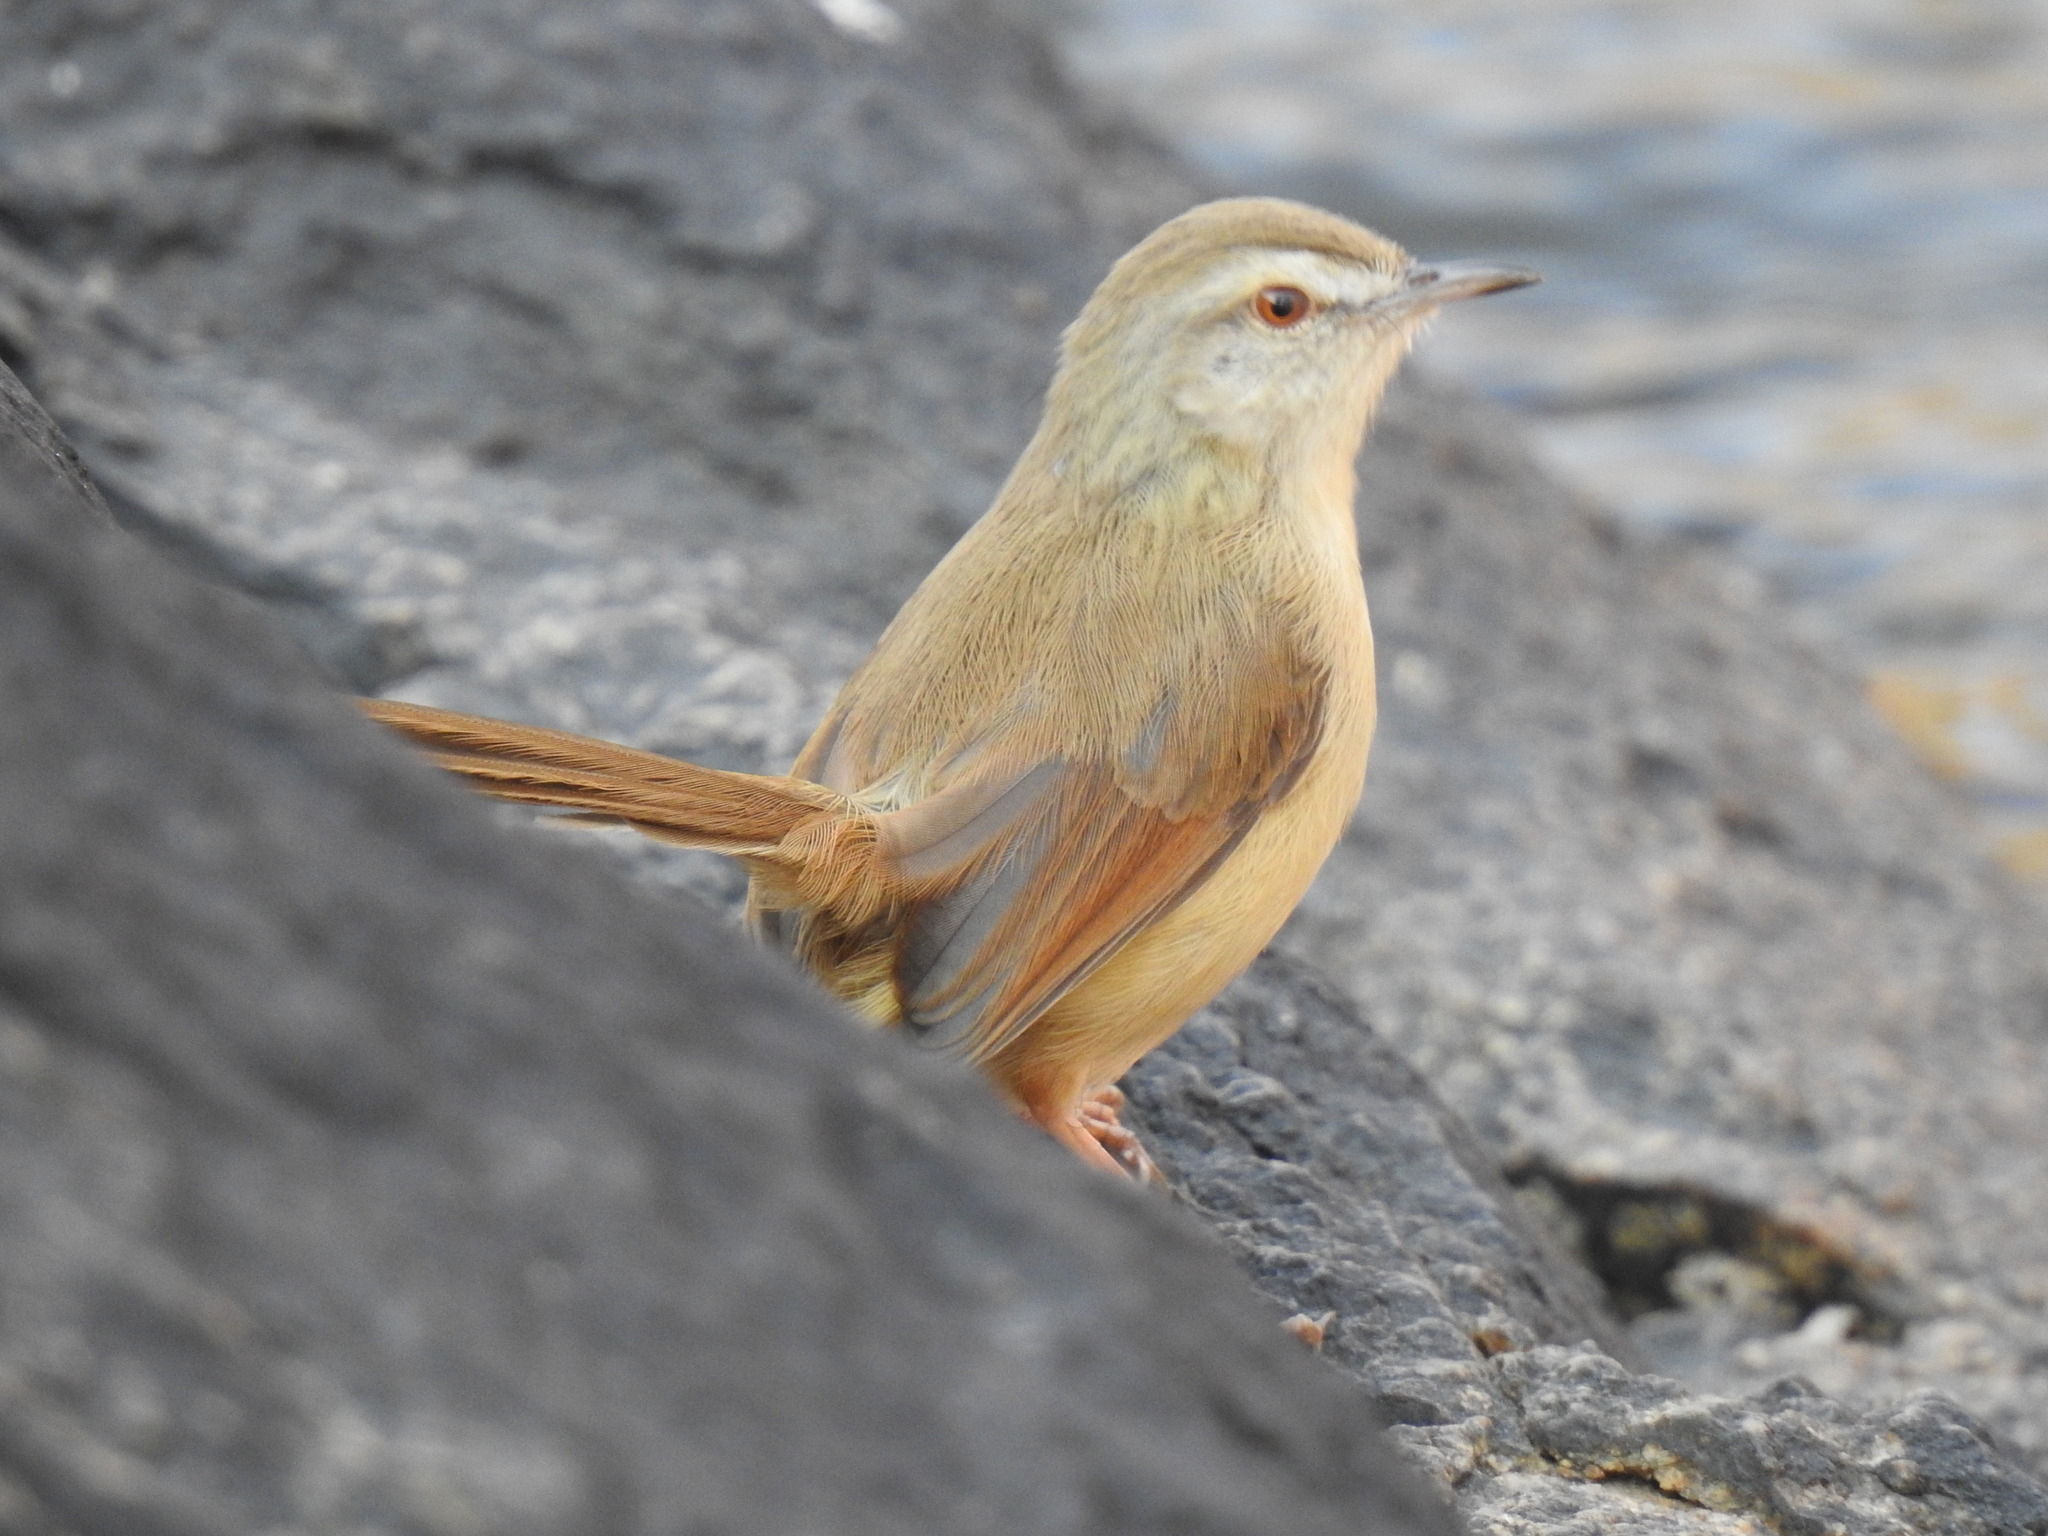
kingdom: Animalia
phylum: Chordata
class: Aves
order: Passeriformes
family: Cisticolidae
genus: Prinia
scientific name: Prinia subflava
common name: Tawny-flanked prinia
